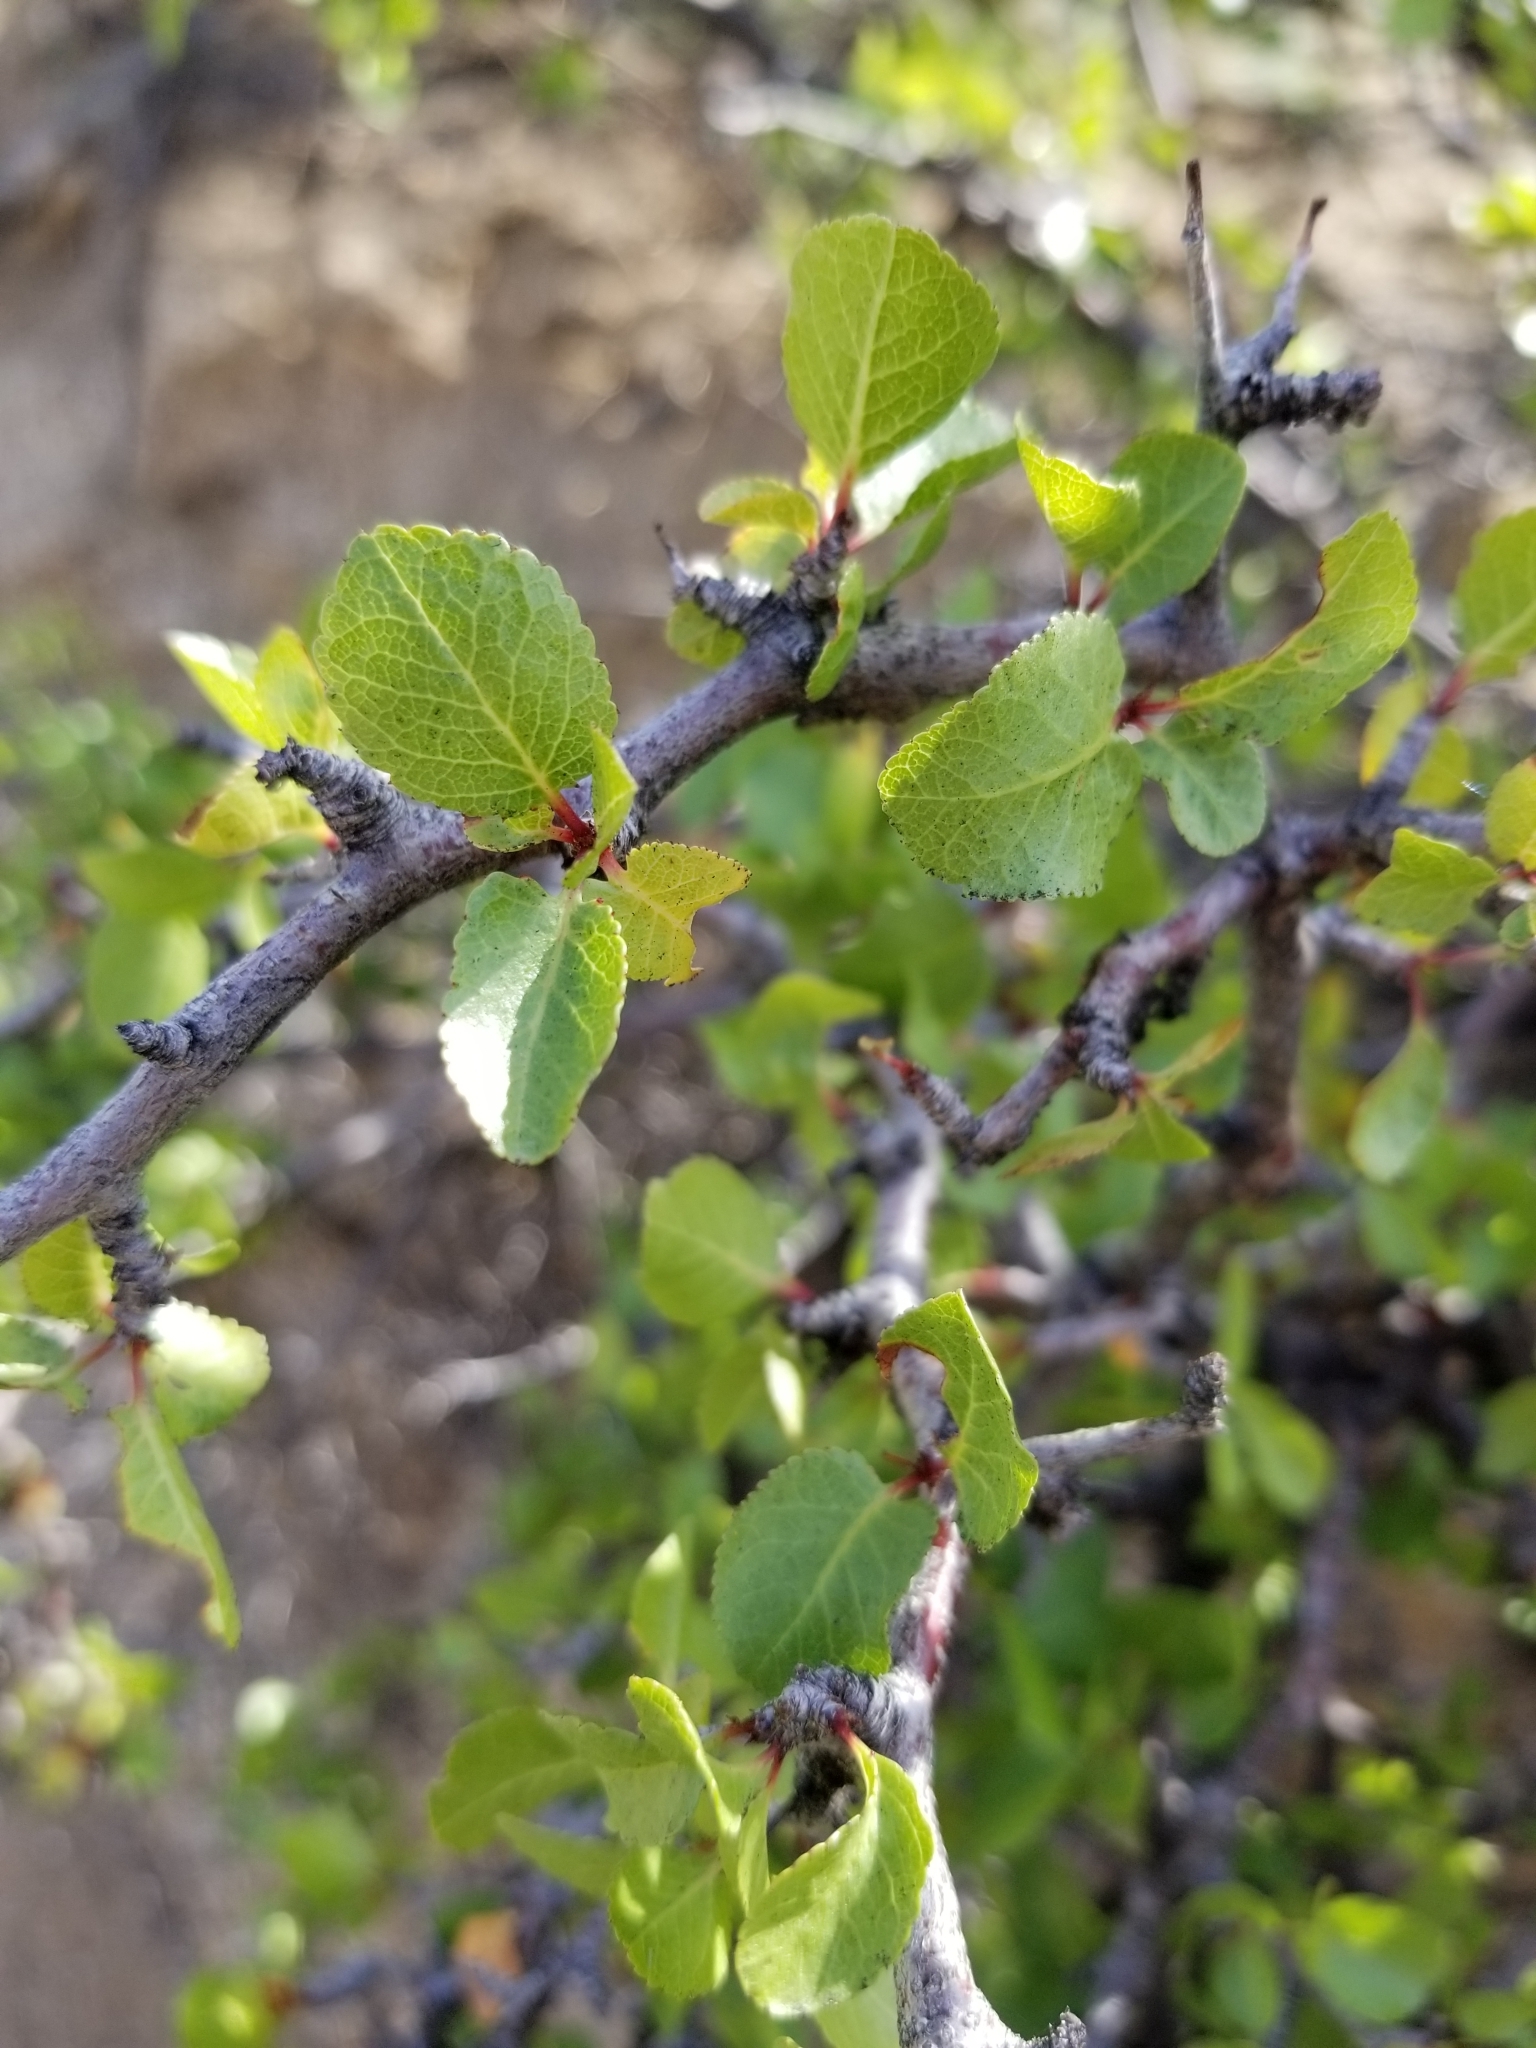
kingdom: Plantae
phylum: Tracheophyta
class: Magnoliopsida
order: Rosales
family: Rosaceae
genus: Prunus
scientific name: Prunus fremontii
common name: Desert apricot
